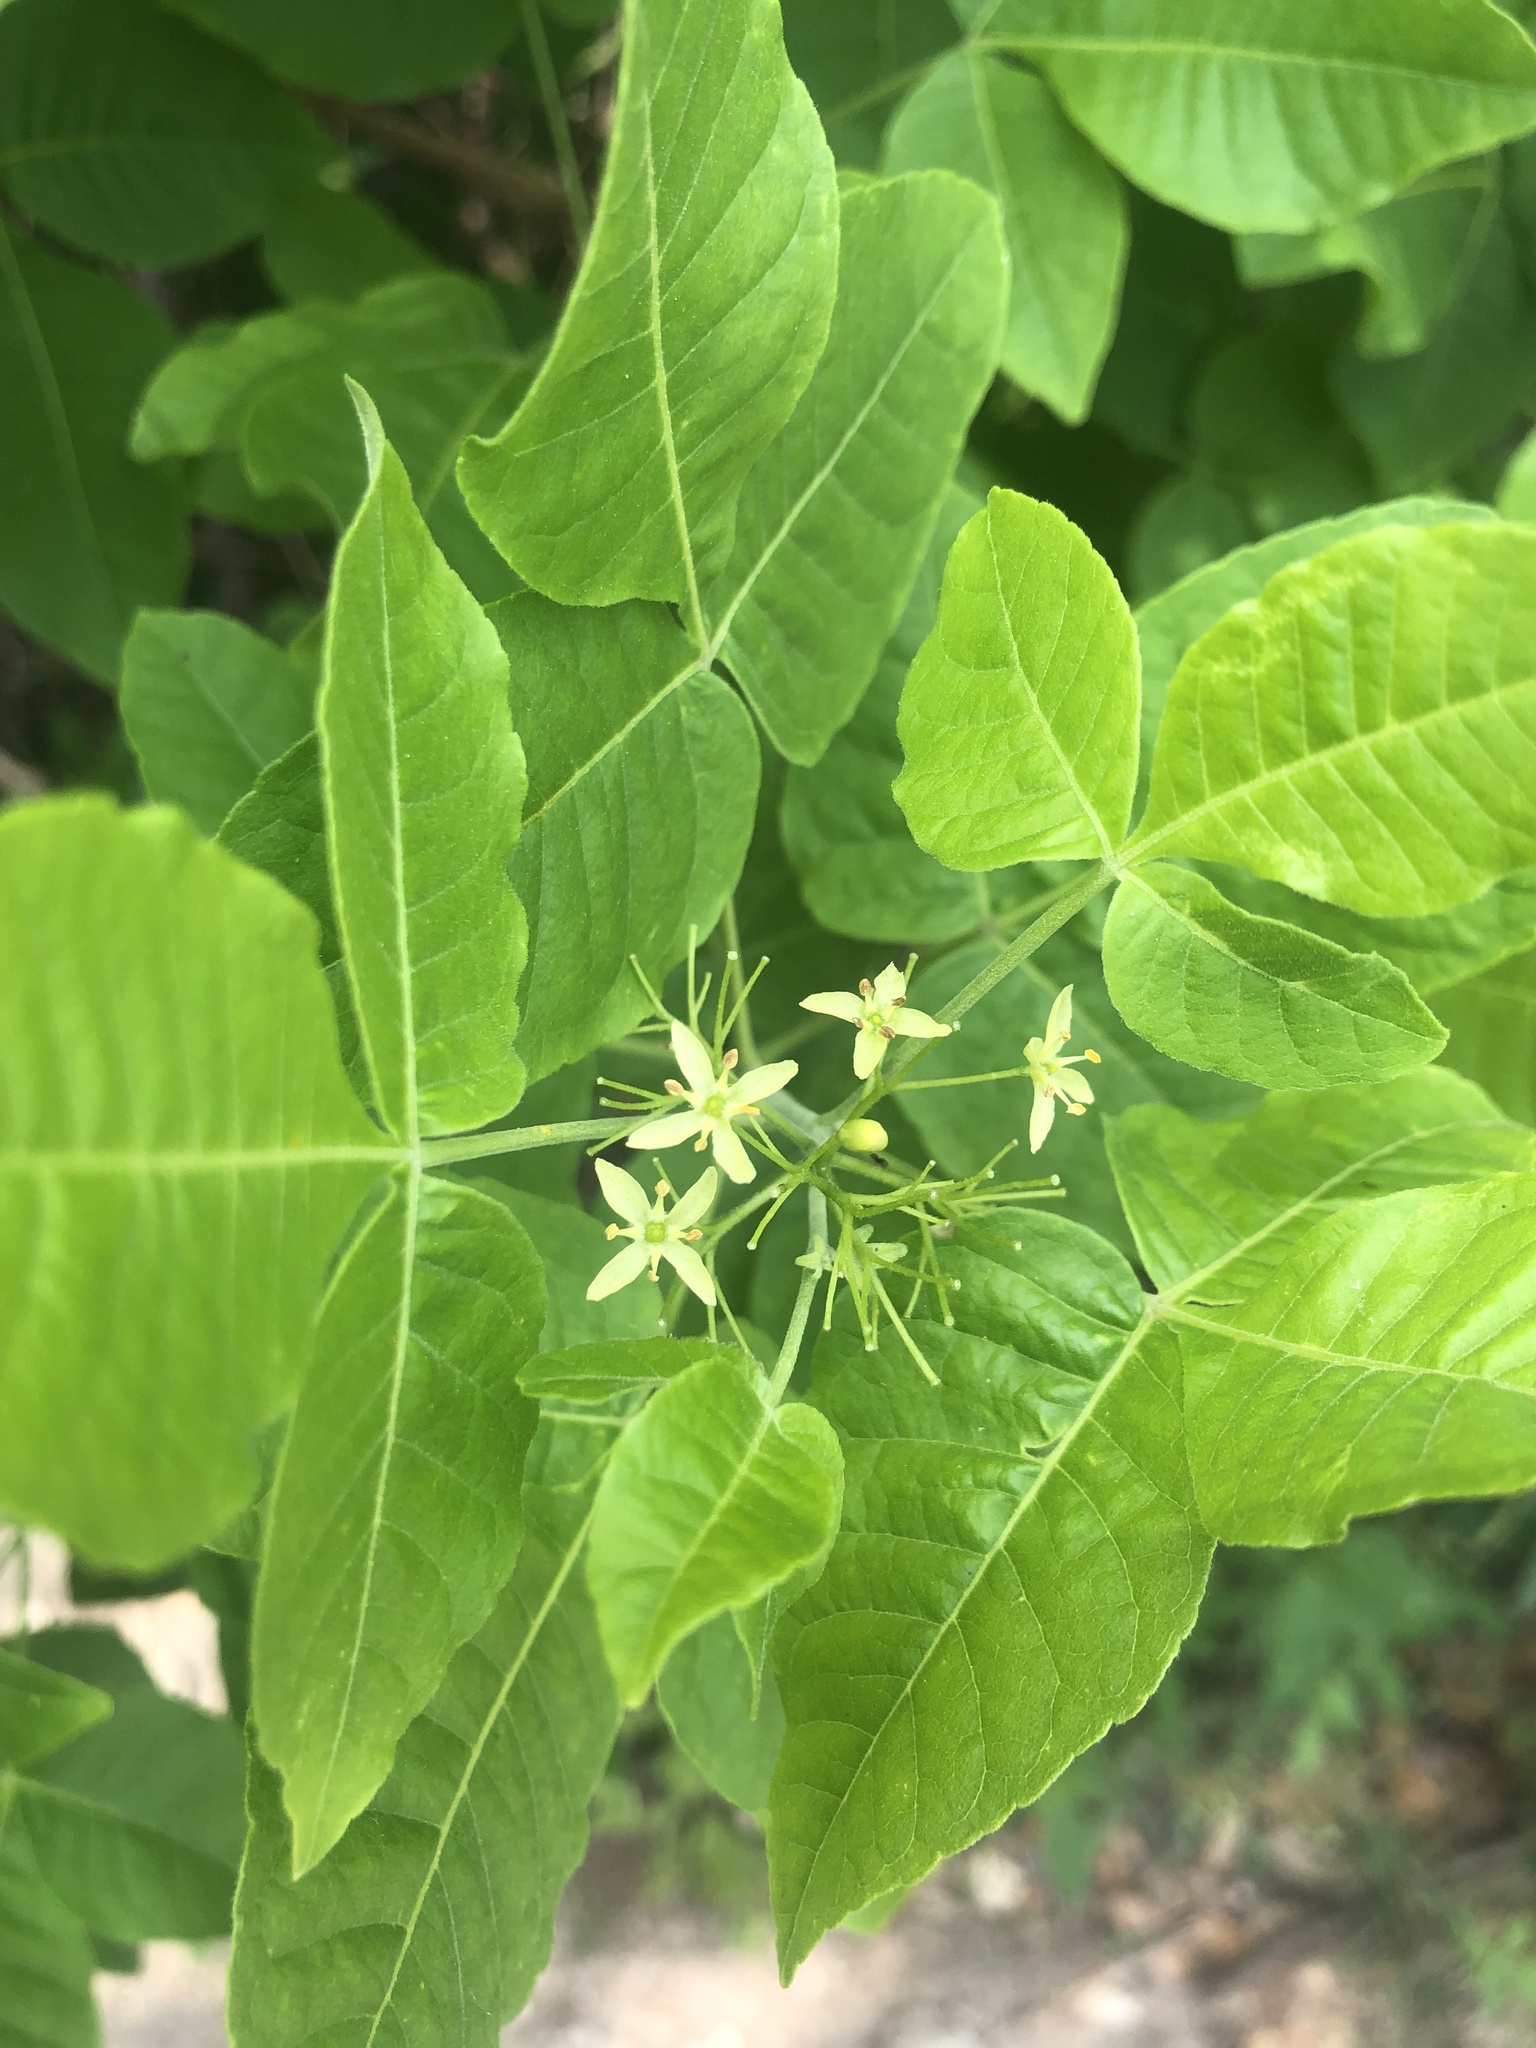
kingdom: Plantae
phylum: Tracheophyta
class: Magnoliopsida
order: Sapindales
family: Rutaceae
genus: Ptelea
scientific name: Ptelea trifoliata
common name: Common hop-tree
